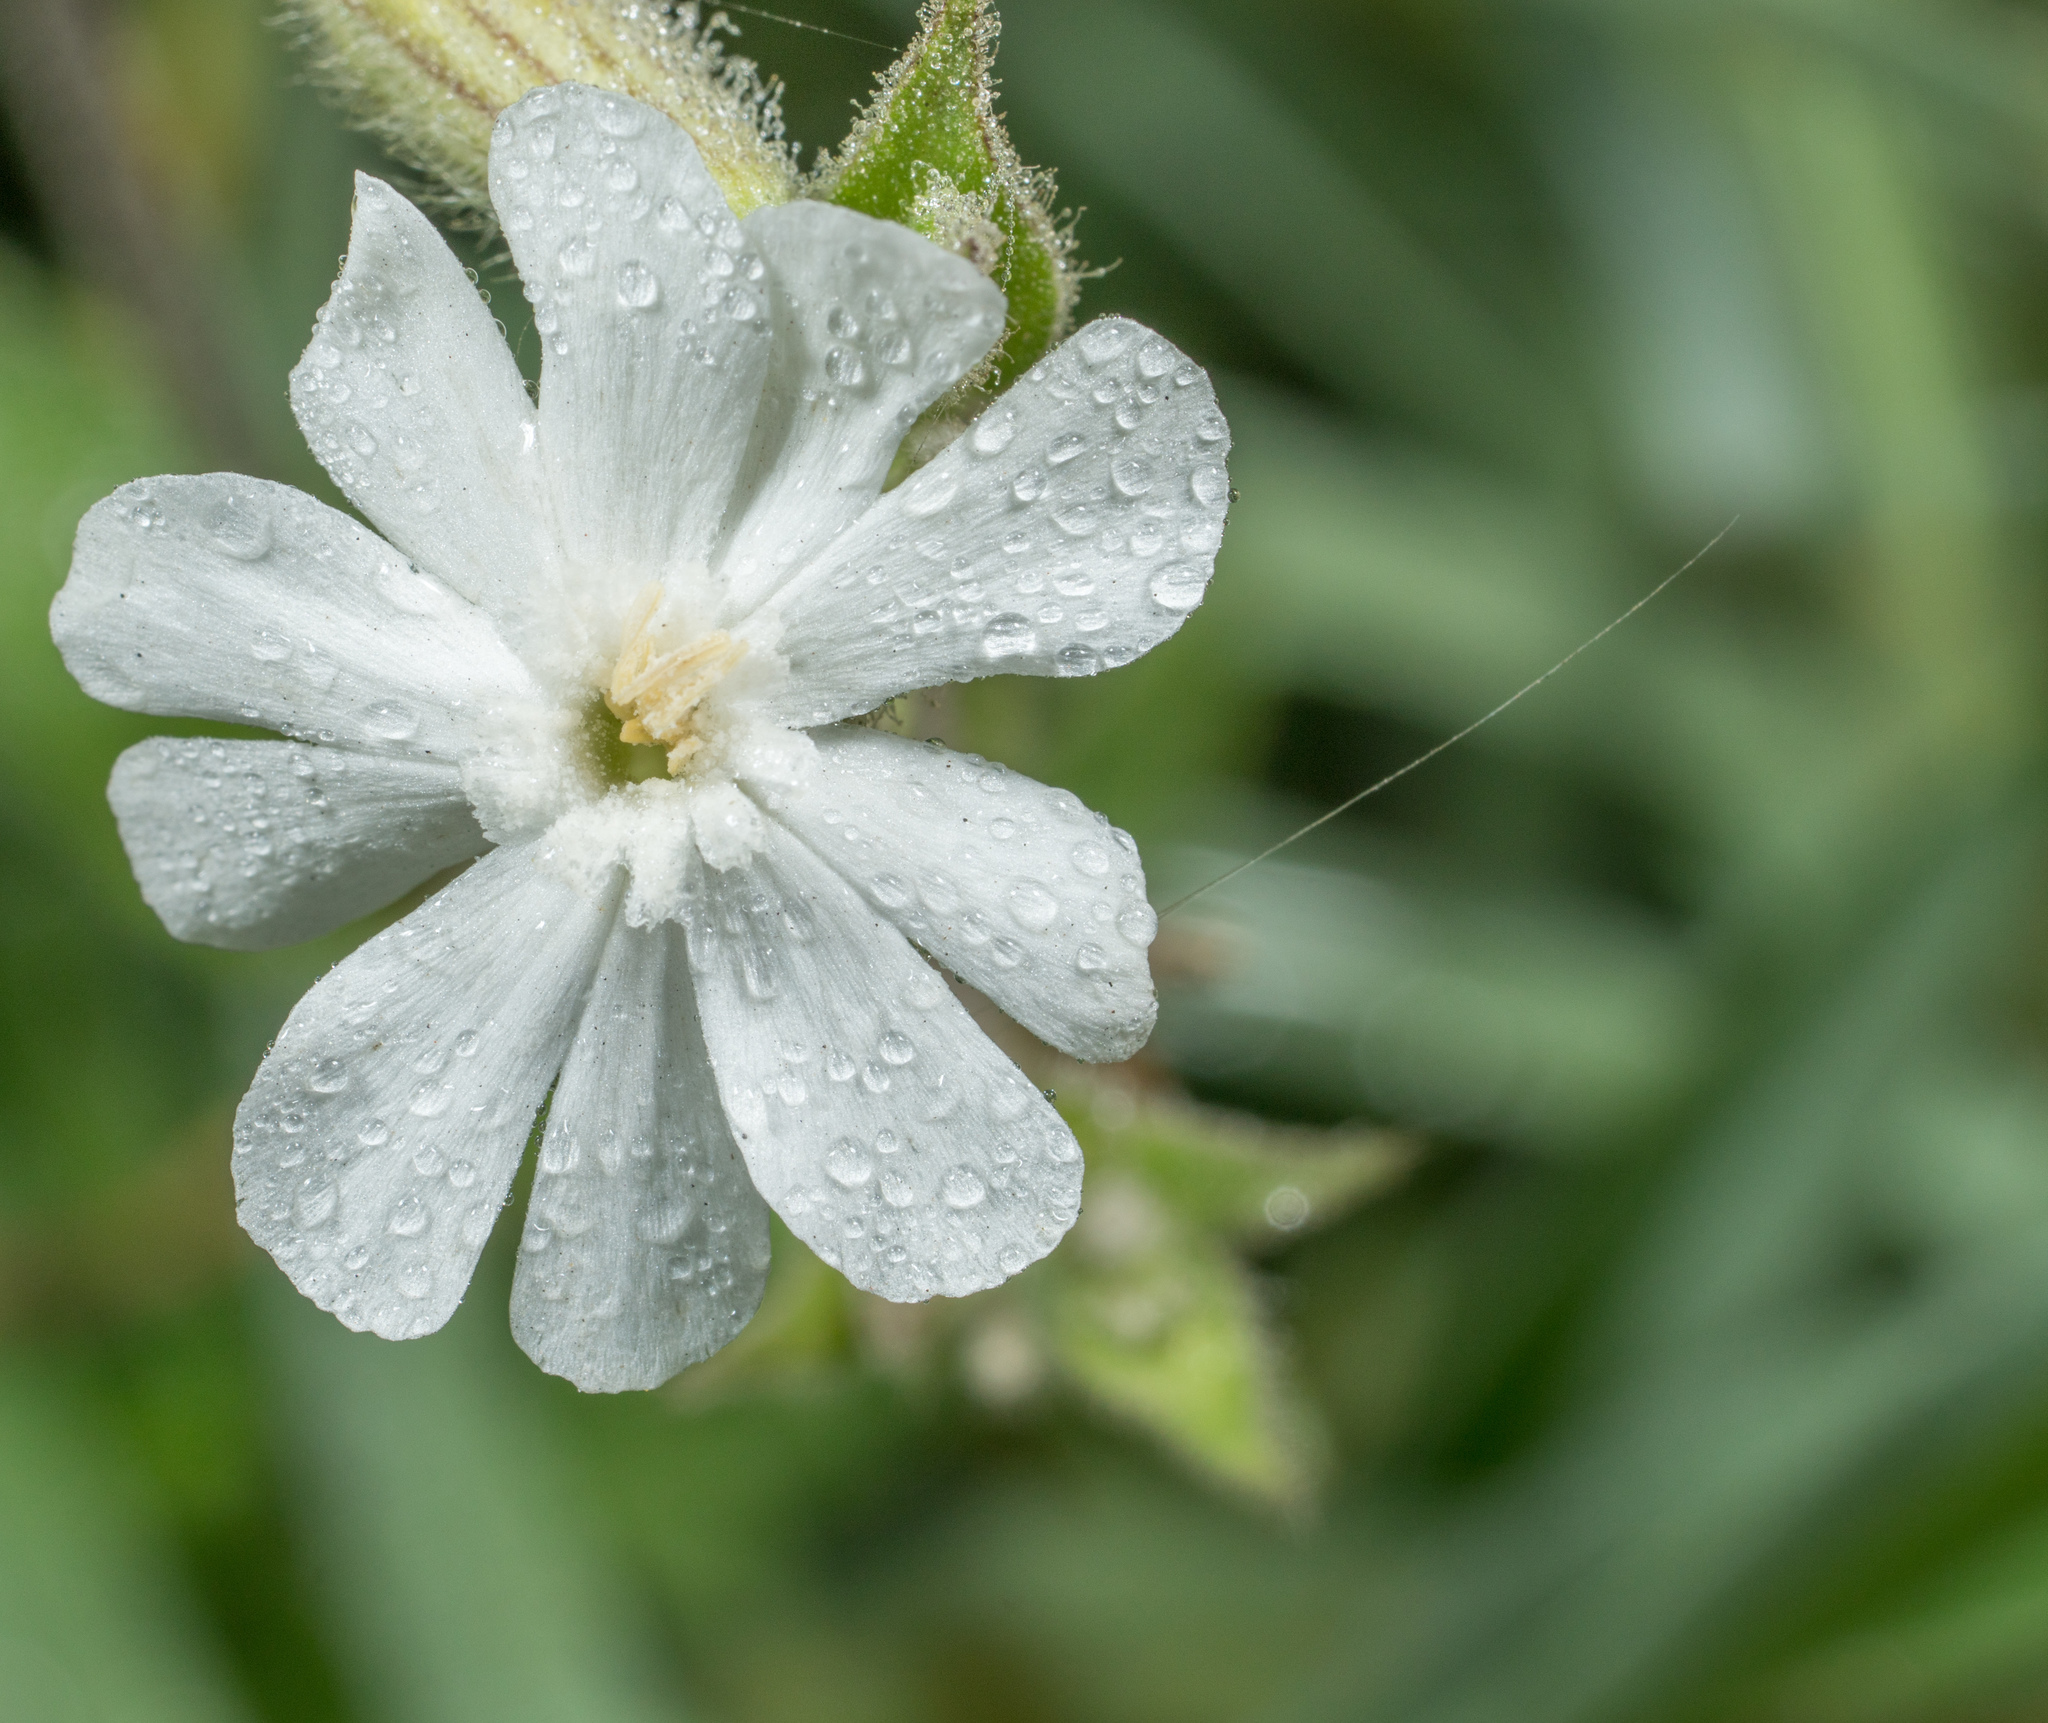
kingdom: Plantae
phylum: Tracheophyta
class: Magnoliopsida
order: Caryophyllales
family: Caryophyllaceae
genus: Silene
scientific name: Silene latifolia
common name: White campion
